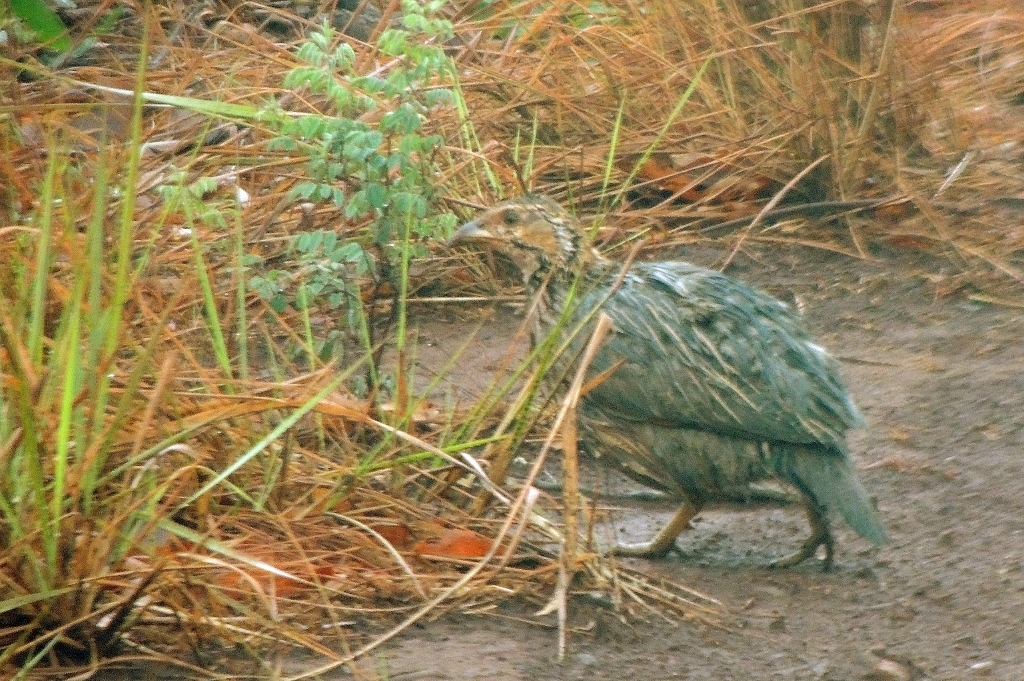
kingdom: Animalia
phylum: Chordata
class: Aves
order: Galliformes
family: Phasianidae
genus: Scleroptila
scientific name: Scleroptila shelleyi
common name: Shelley's francolin
